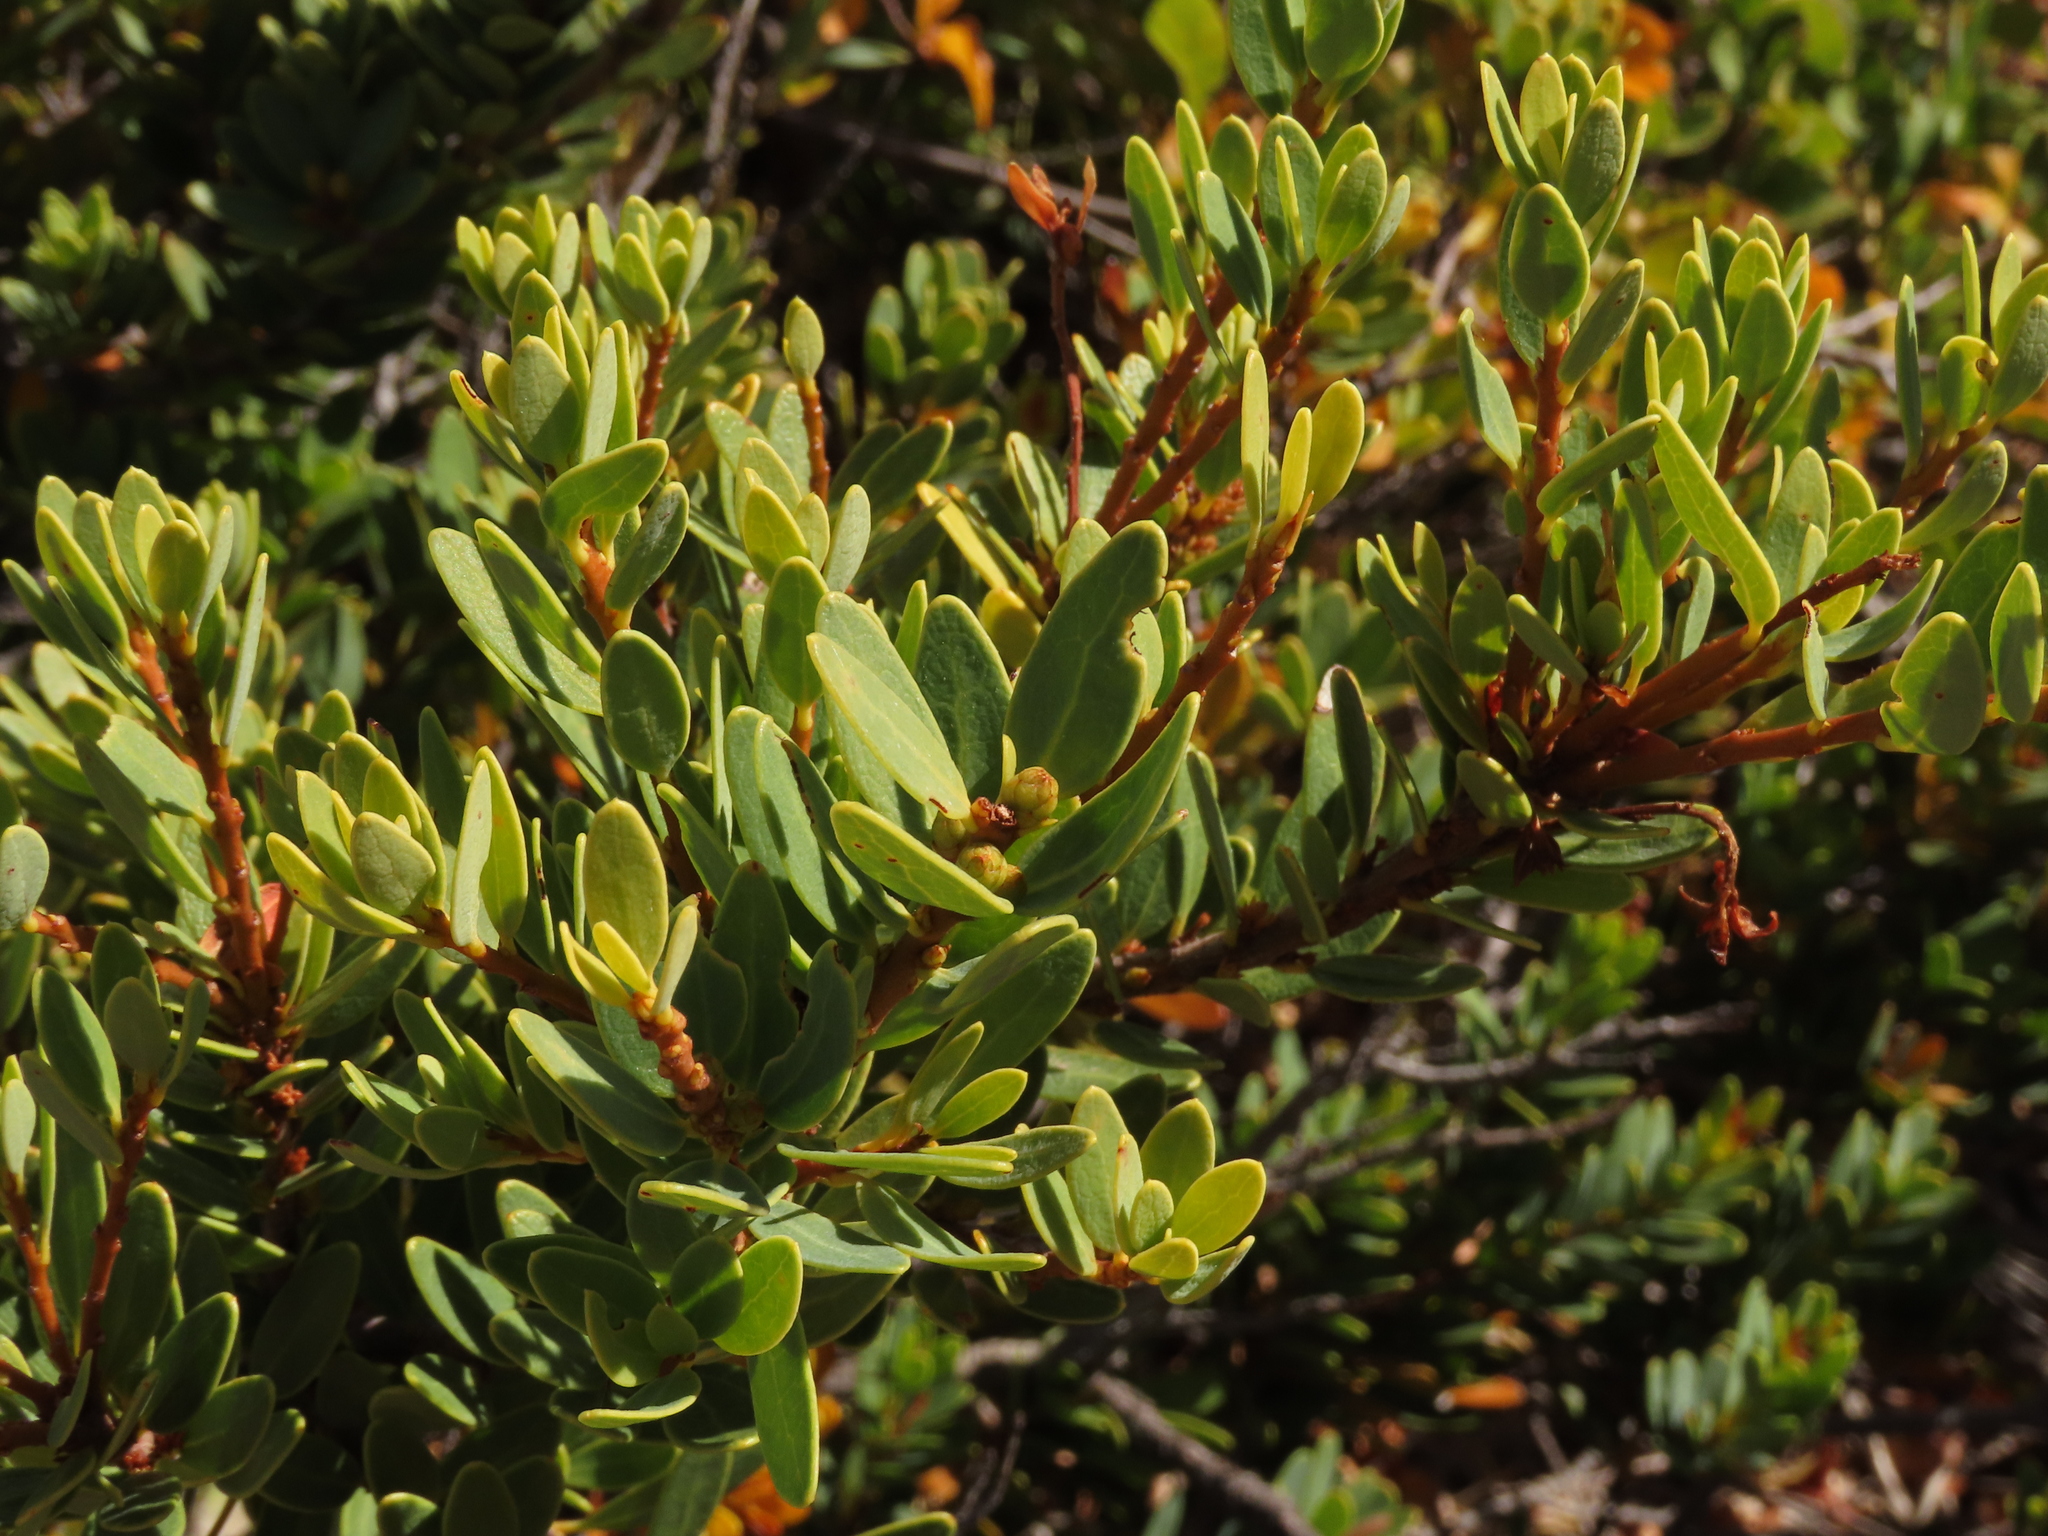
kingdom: Plantae
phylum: Tracheophyta
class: Magnoliopsida
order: Proteales
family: Proteaceae
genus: Orites
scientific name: Orites myrtoideus
